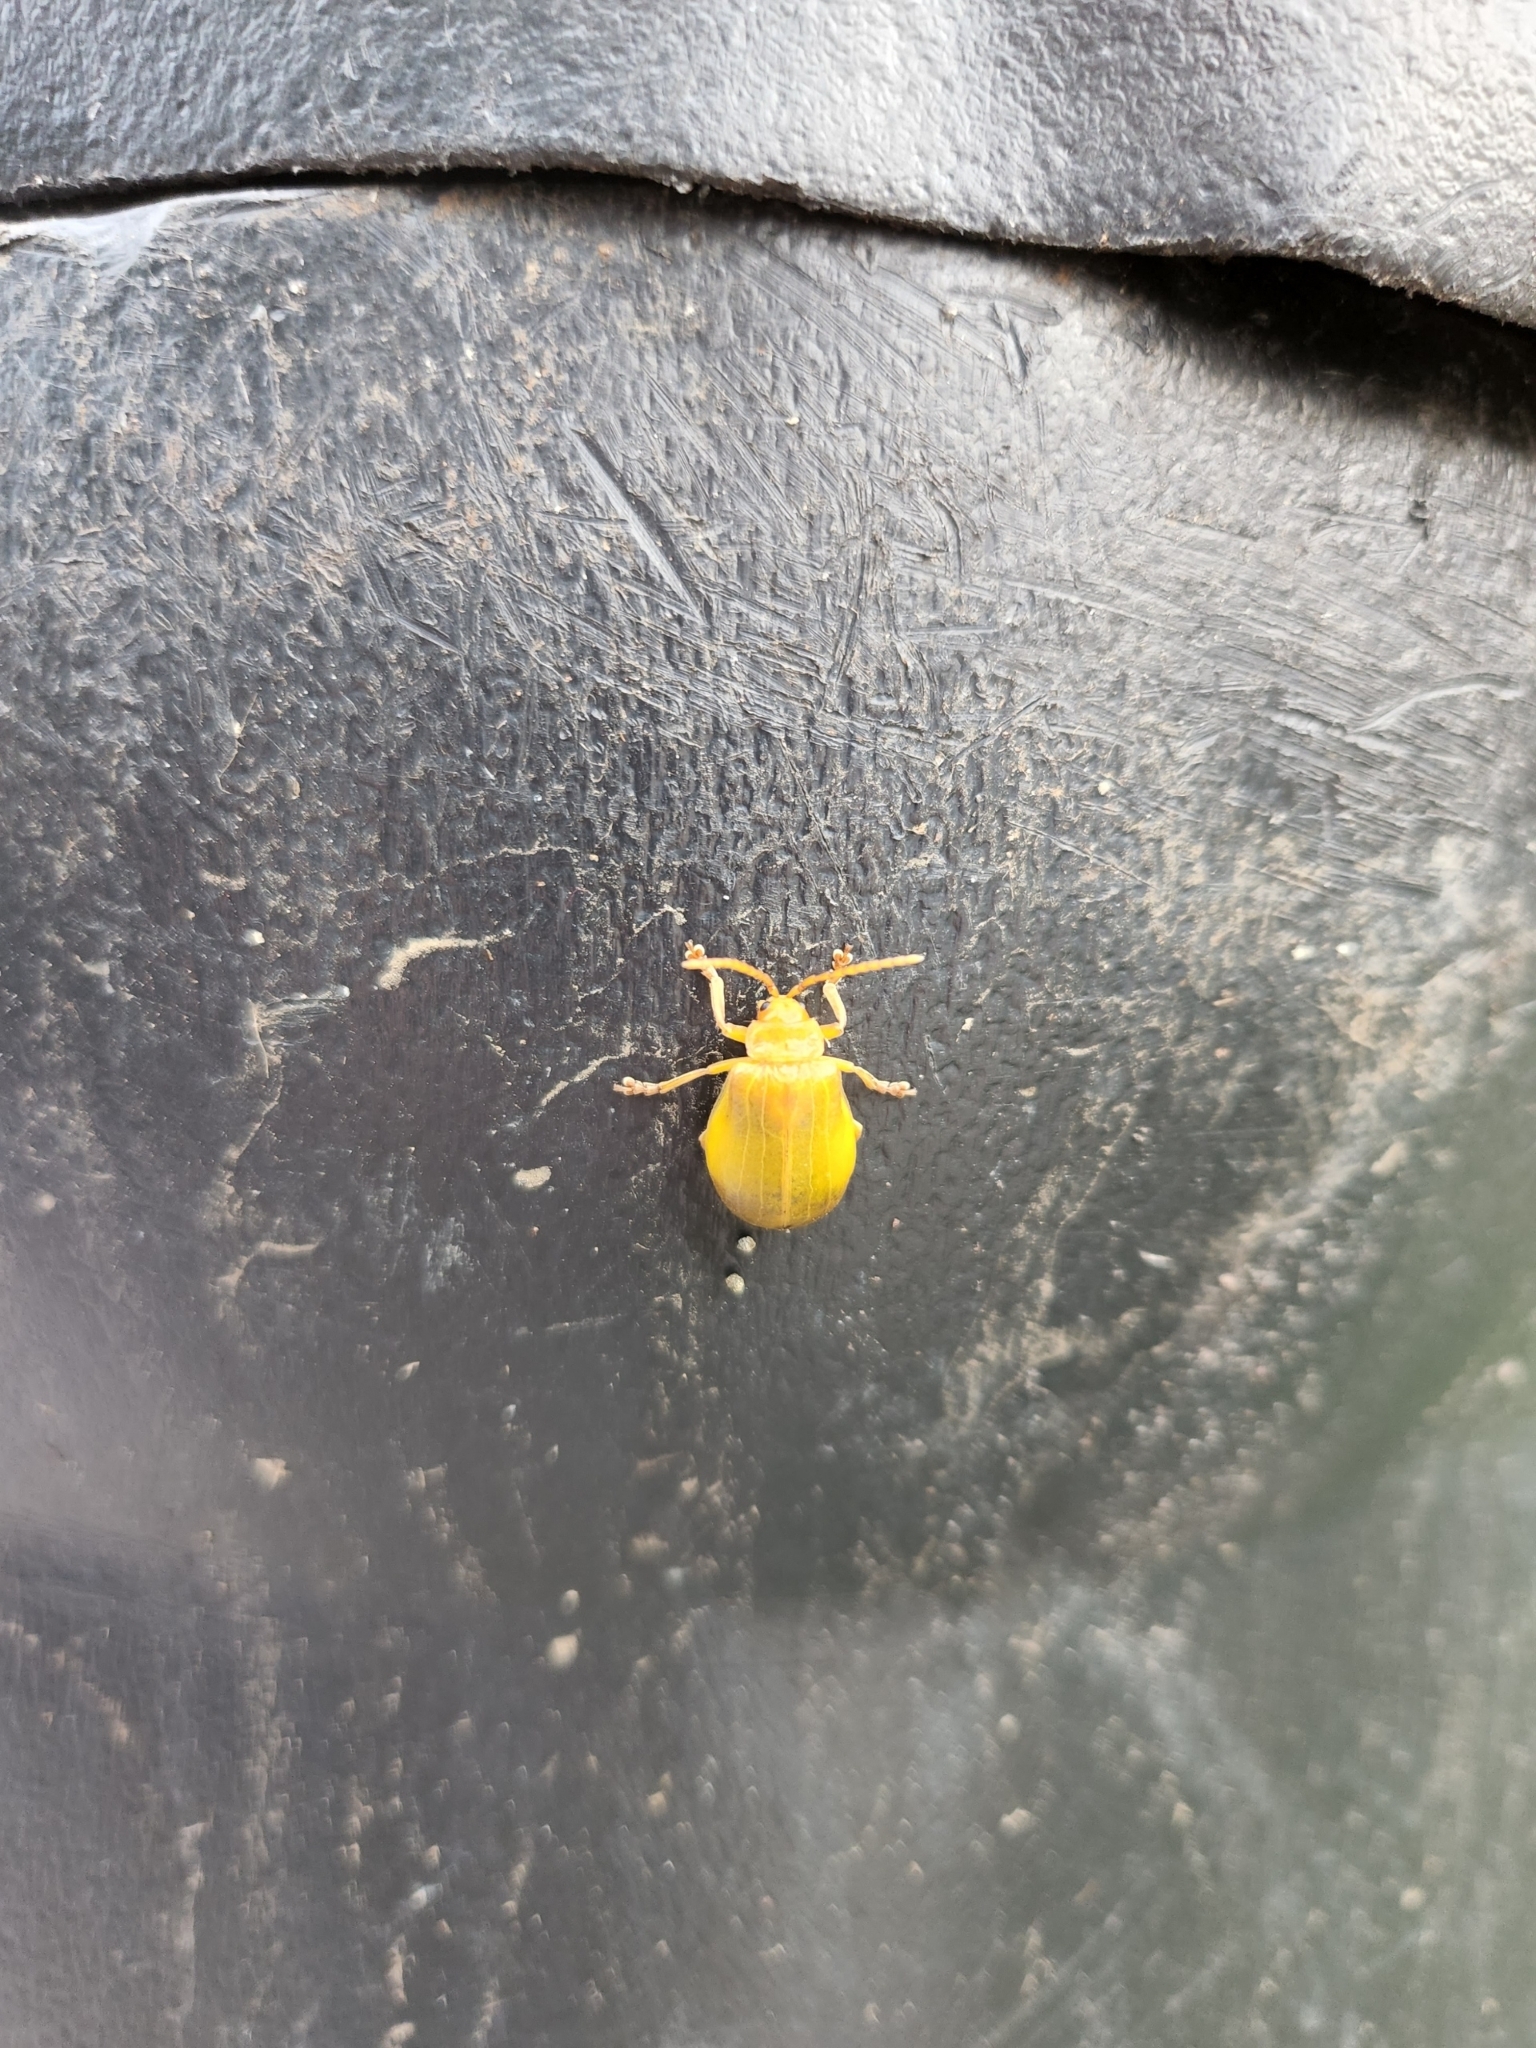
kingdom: Animalia
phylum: Arthropoda
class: Insecta
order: Coleoptera
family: Chrysomelidae
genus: Monocesta
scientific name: Monocesta coryli
